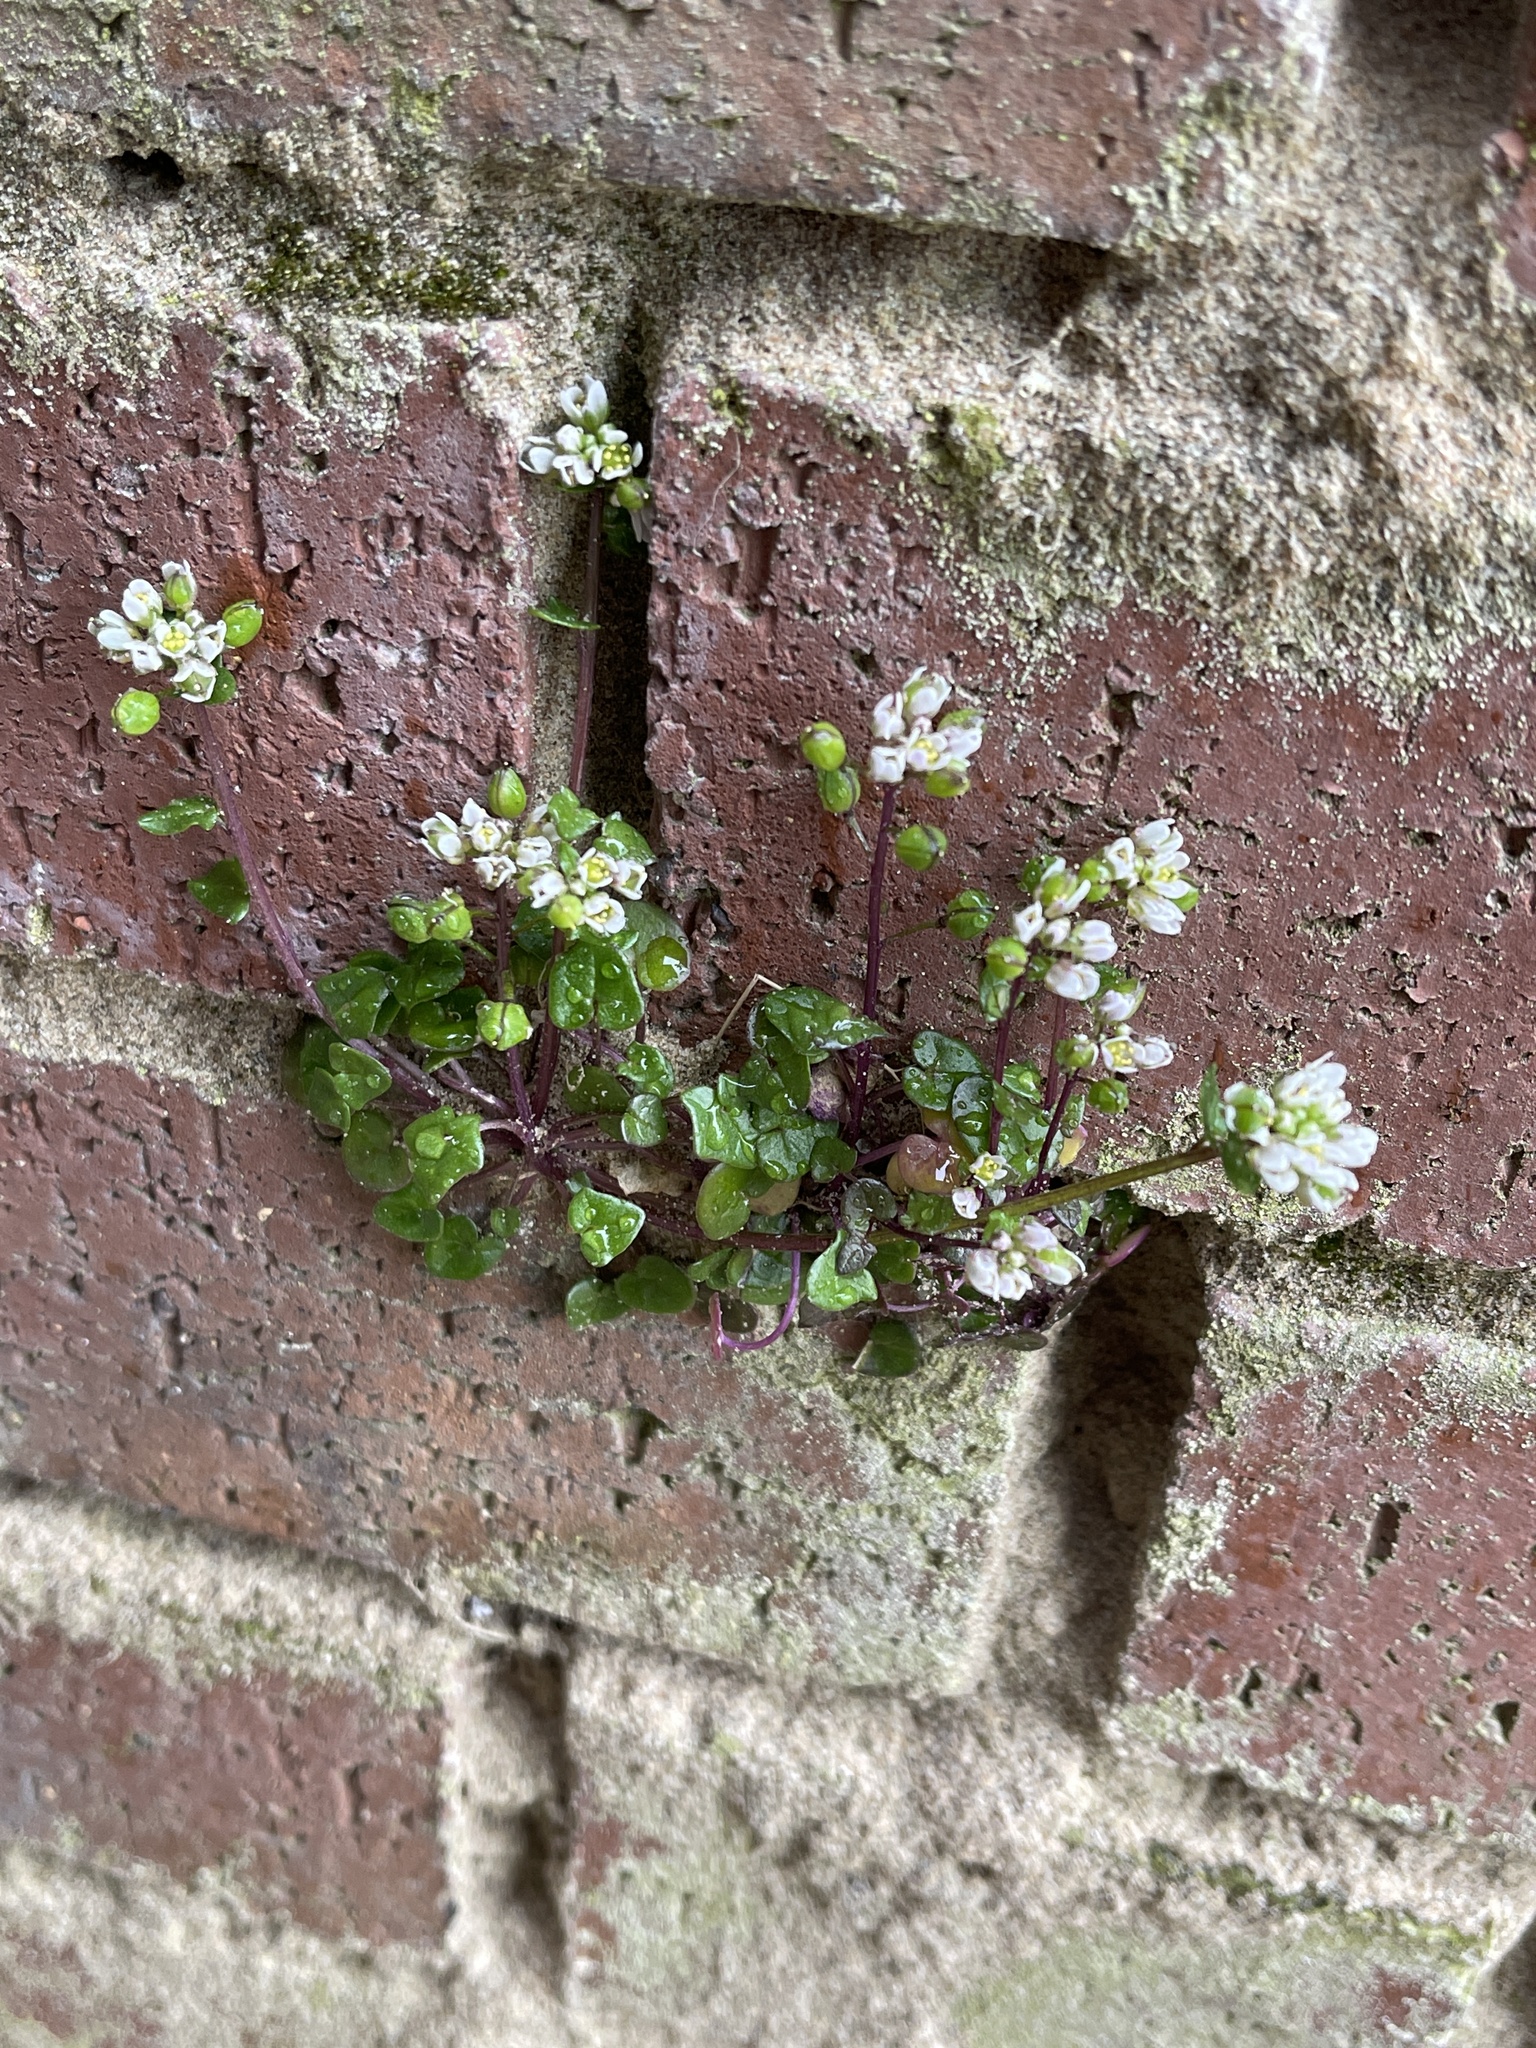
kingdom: Plantae
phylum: Tracheophyta
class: Magnoliopsida
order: Brassicales
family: Brassicaceae
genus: Cochlearia
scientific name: Cochlearia danica
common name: Early scurvygrass
